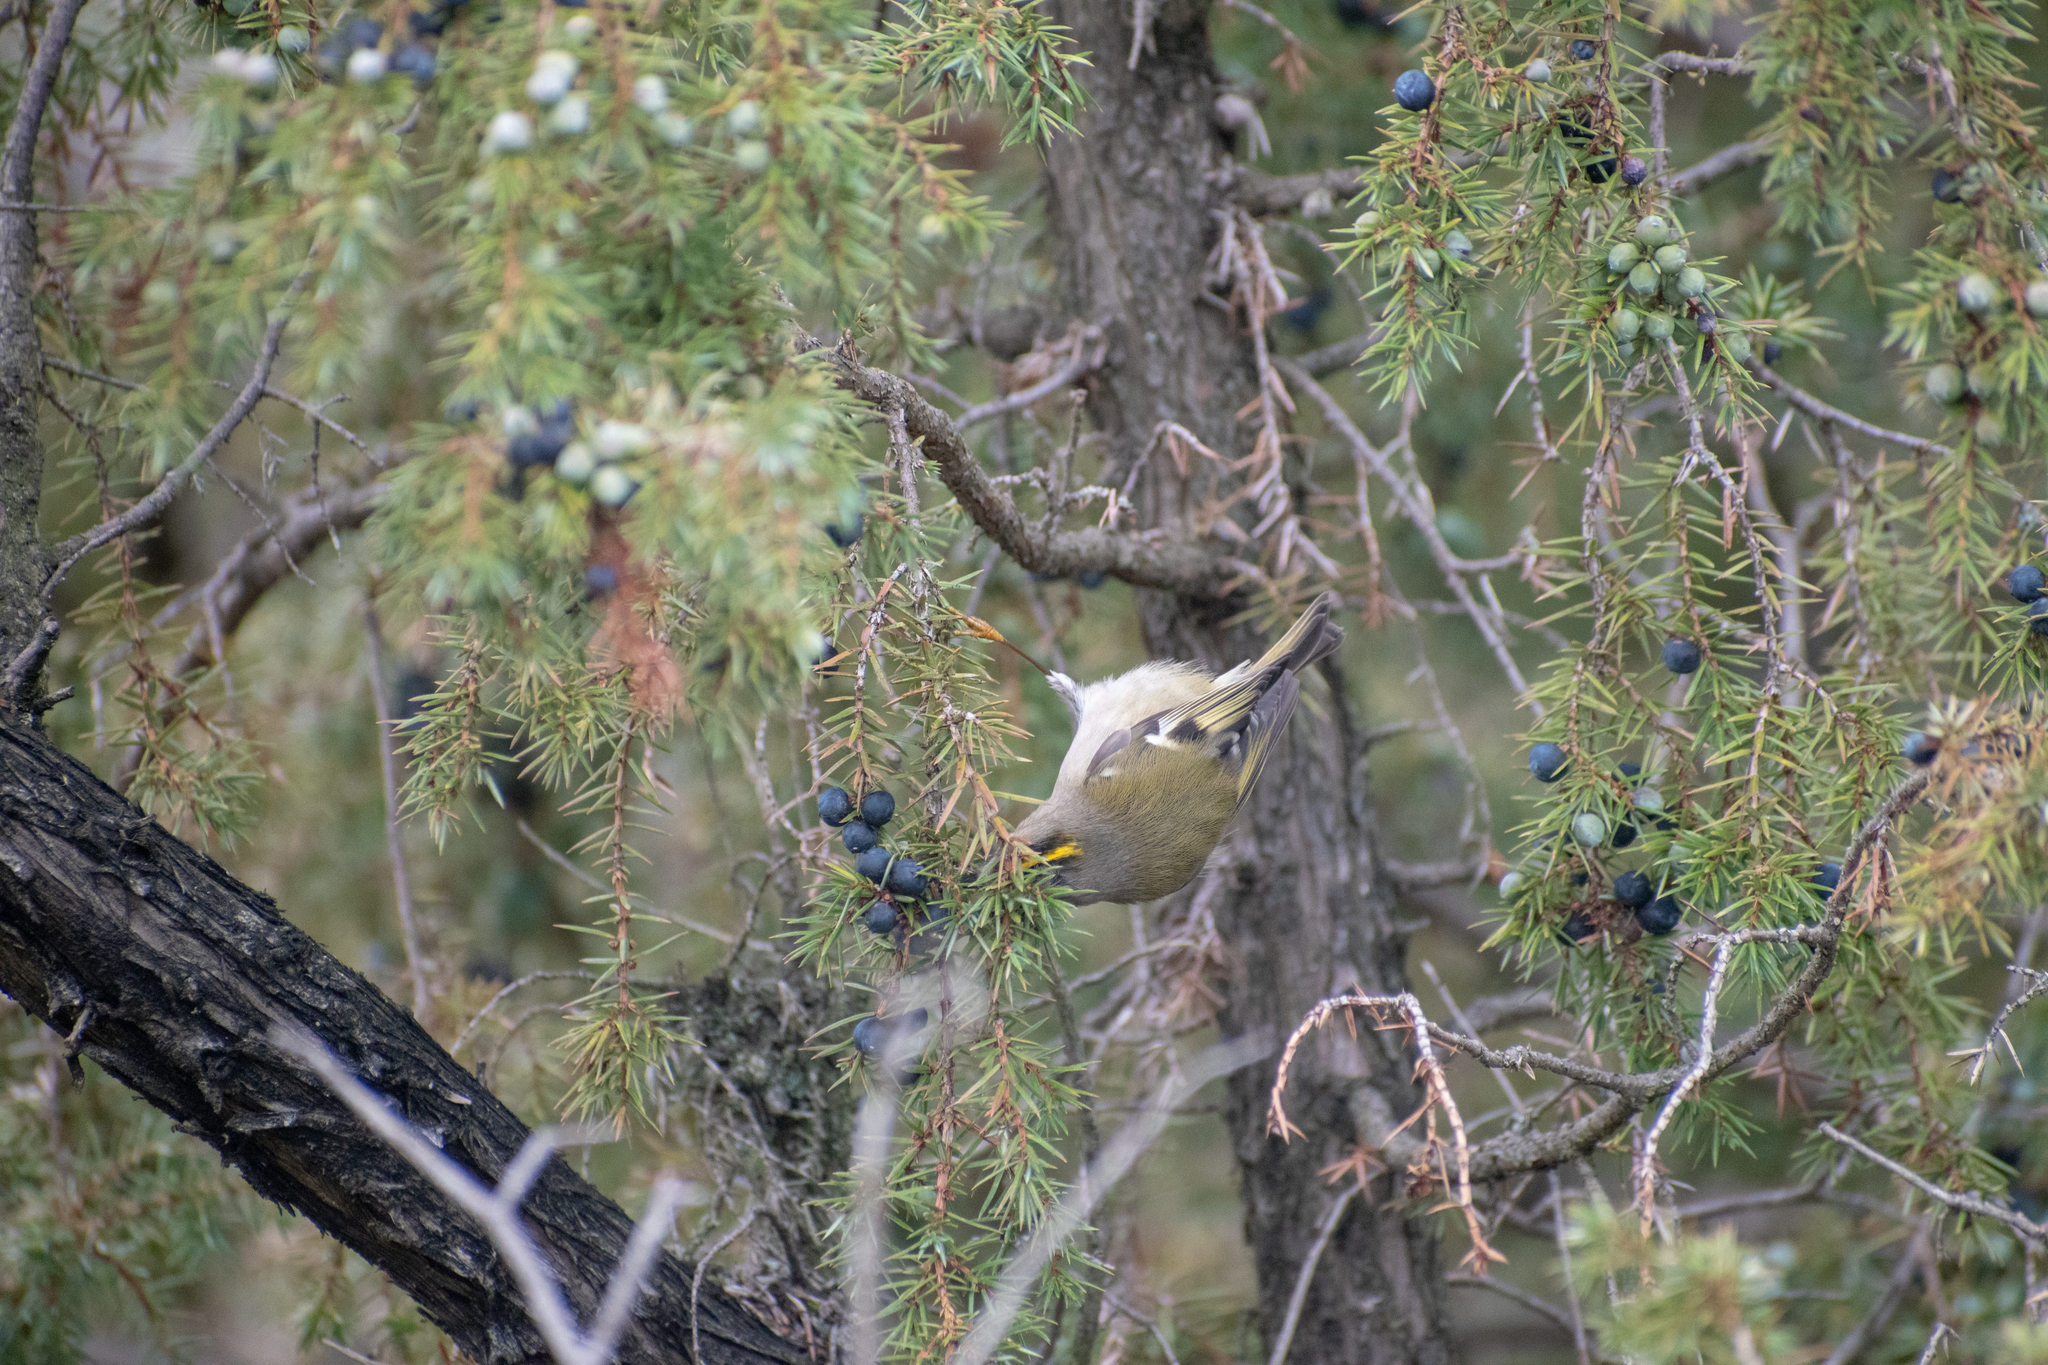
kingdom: Animalia
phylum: Chordata
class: Aves
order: Passeriformes
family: Regulidae
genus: Regulus
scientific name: Regulus regulus
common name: Goldcrest
